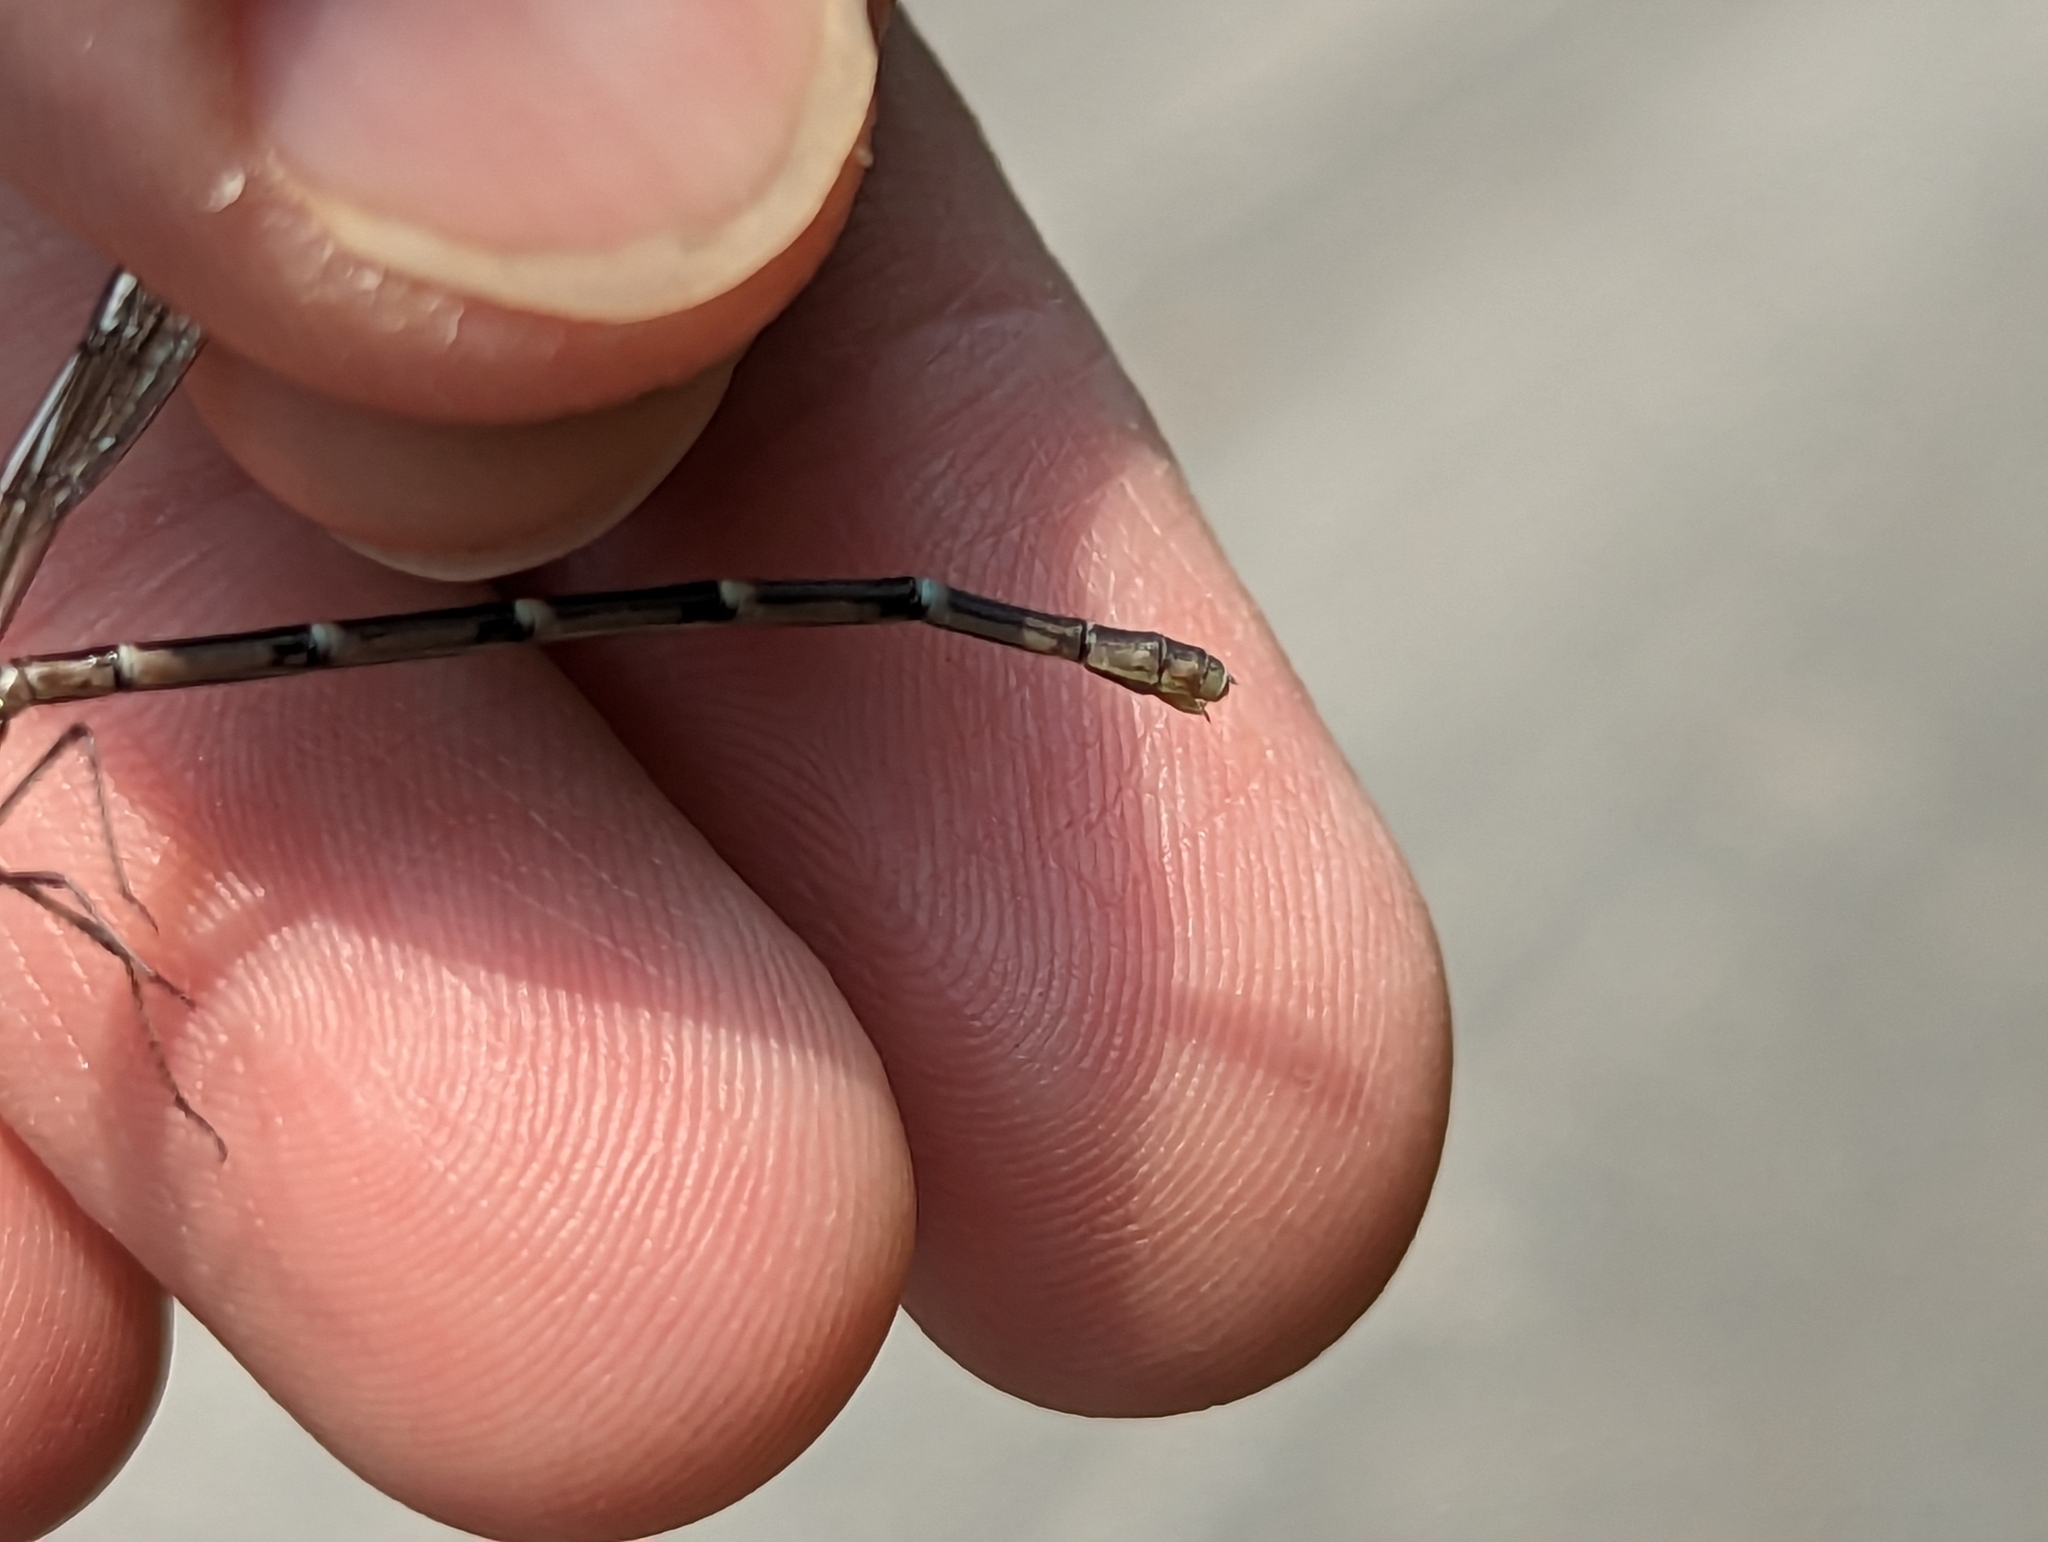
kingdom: Animalia
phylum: Arthropoda
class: Insecta
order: Odonata
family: Coenagrionidae
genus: Chromagrion
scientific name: Chromagrion conditum
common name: Aurora damsel
